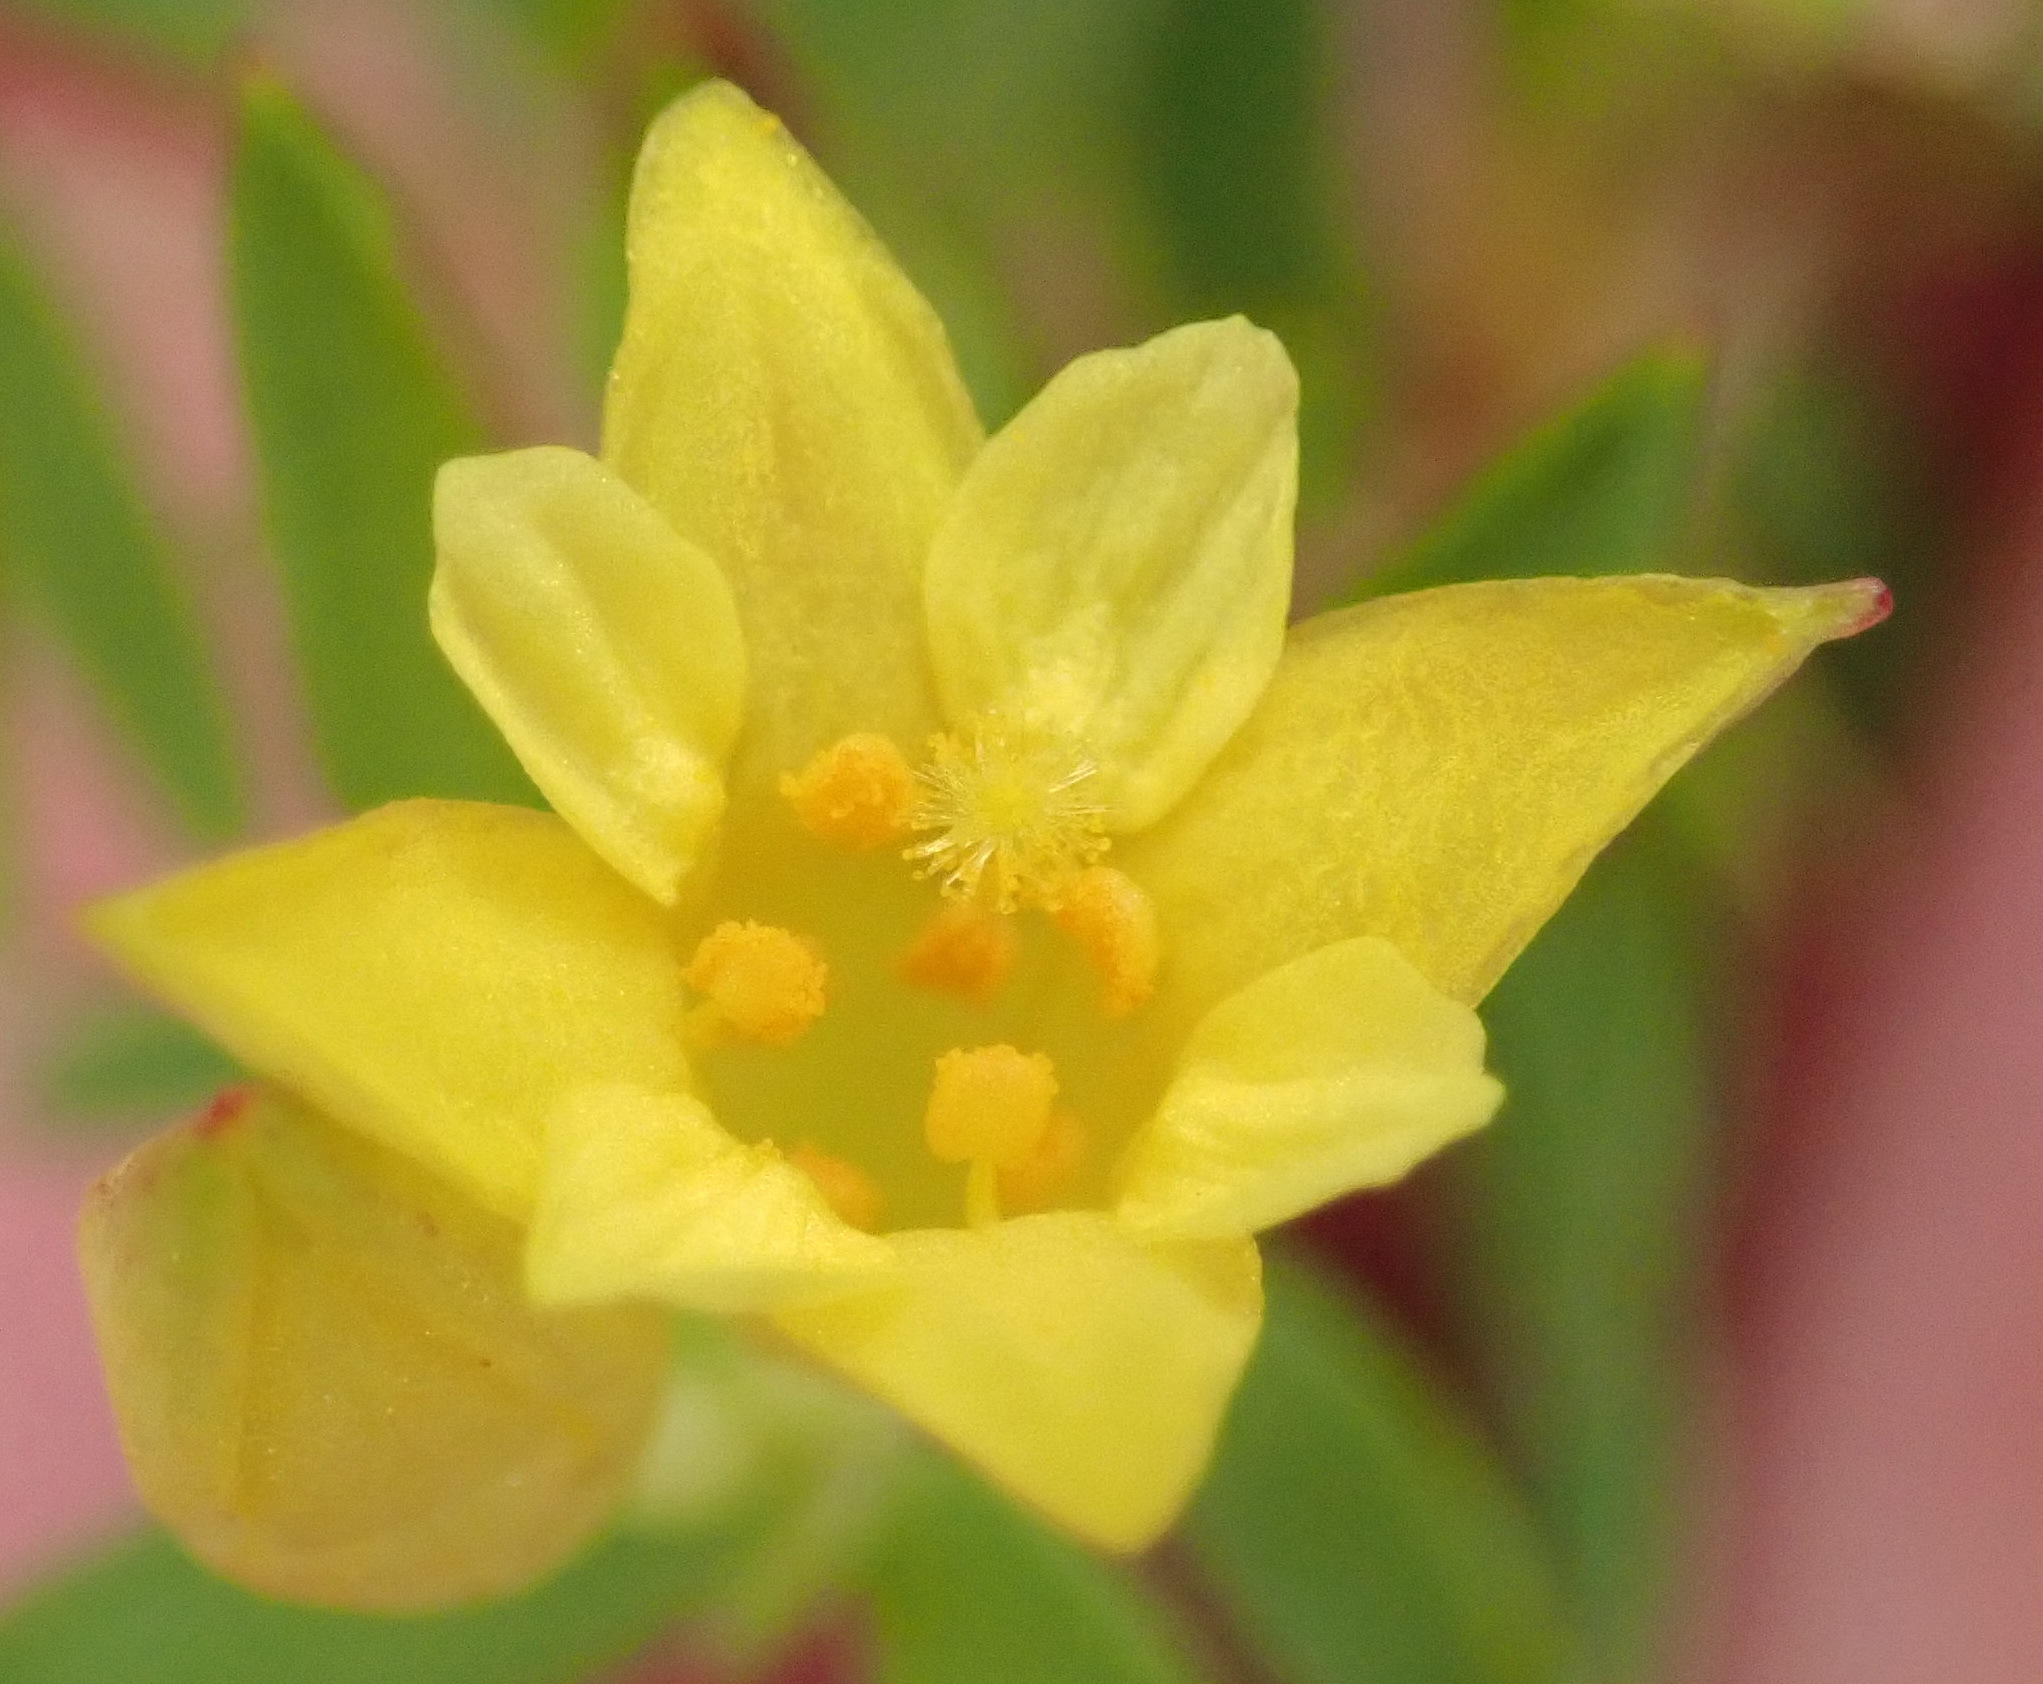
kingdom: Plantae
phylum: Tracheophyta
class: Magnoliopsida
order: Malvales
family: Thymelaeaceae
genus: Gnidia
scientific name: Gnidia juniperifolia
